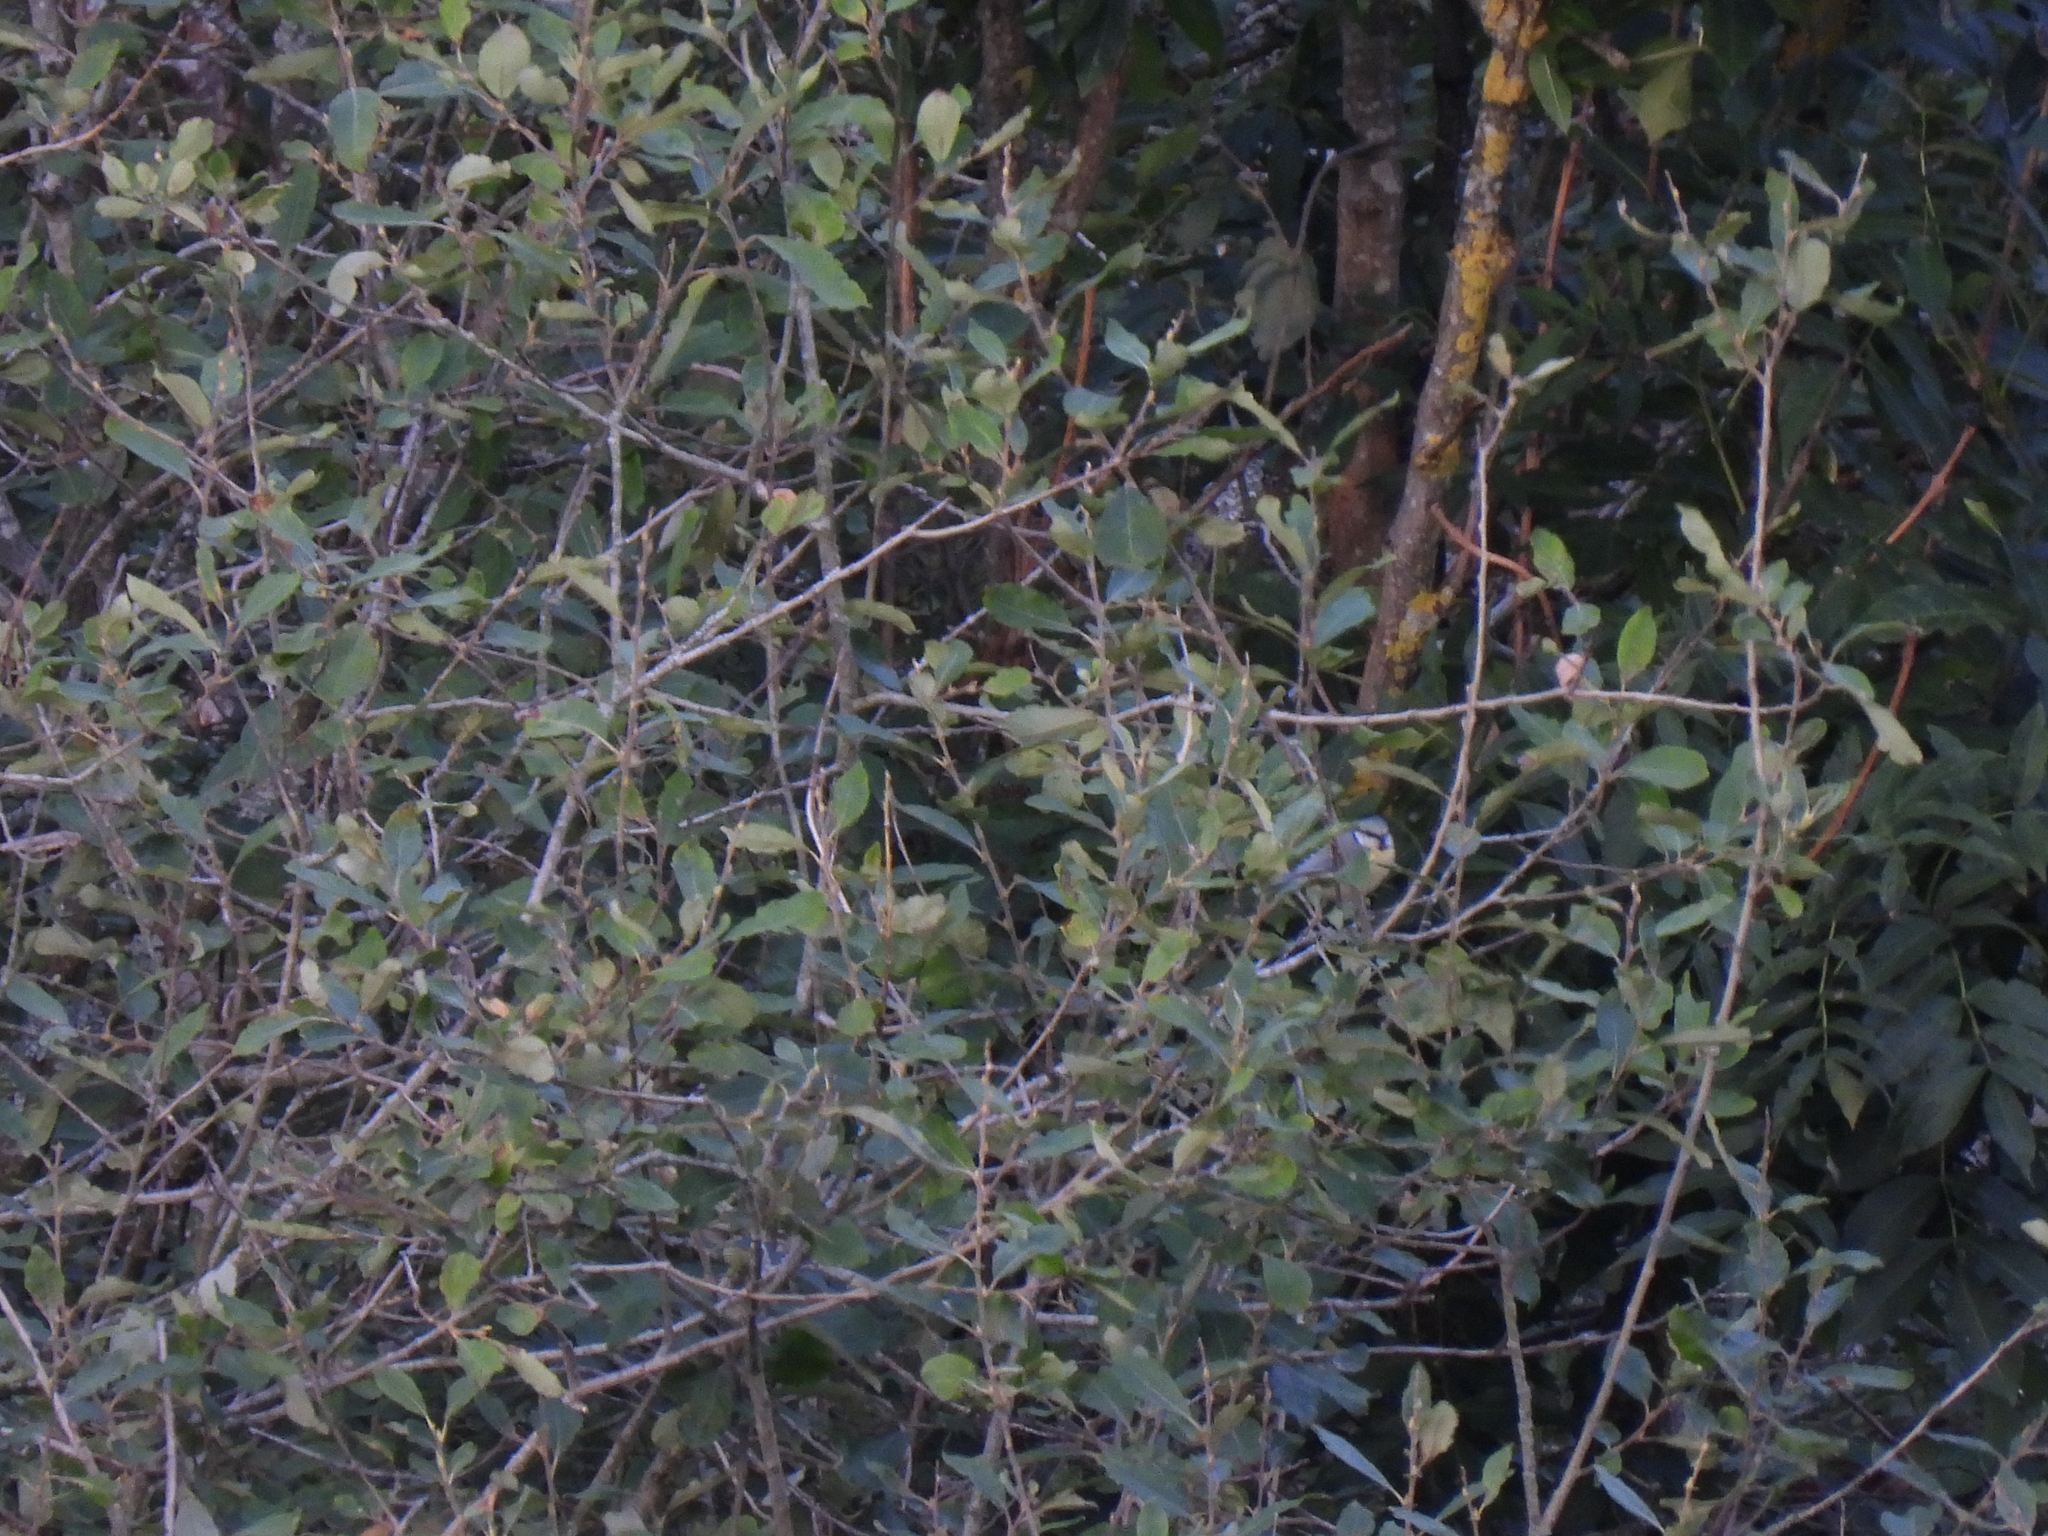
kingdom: Animalia
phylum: Chordata
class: Aves
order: Passeriformes
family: Paridae
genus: Cyanistes
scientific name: Cyanistes caeruleus
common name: Eurasian blue tit
